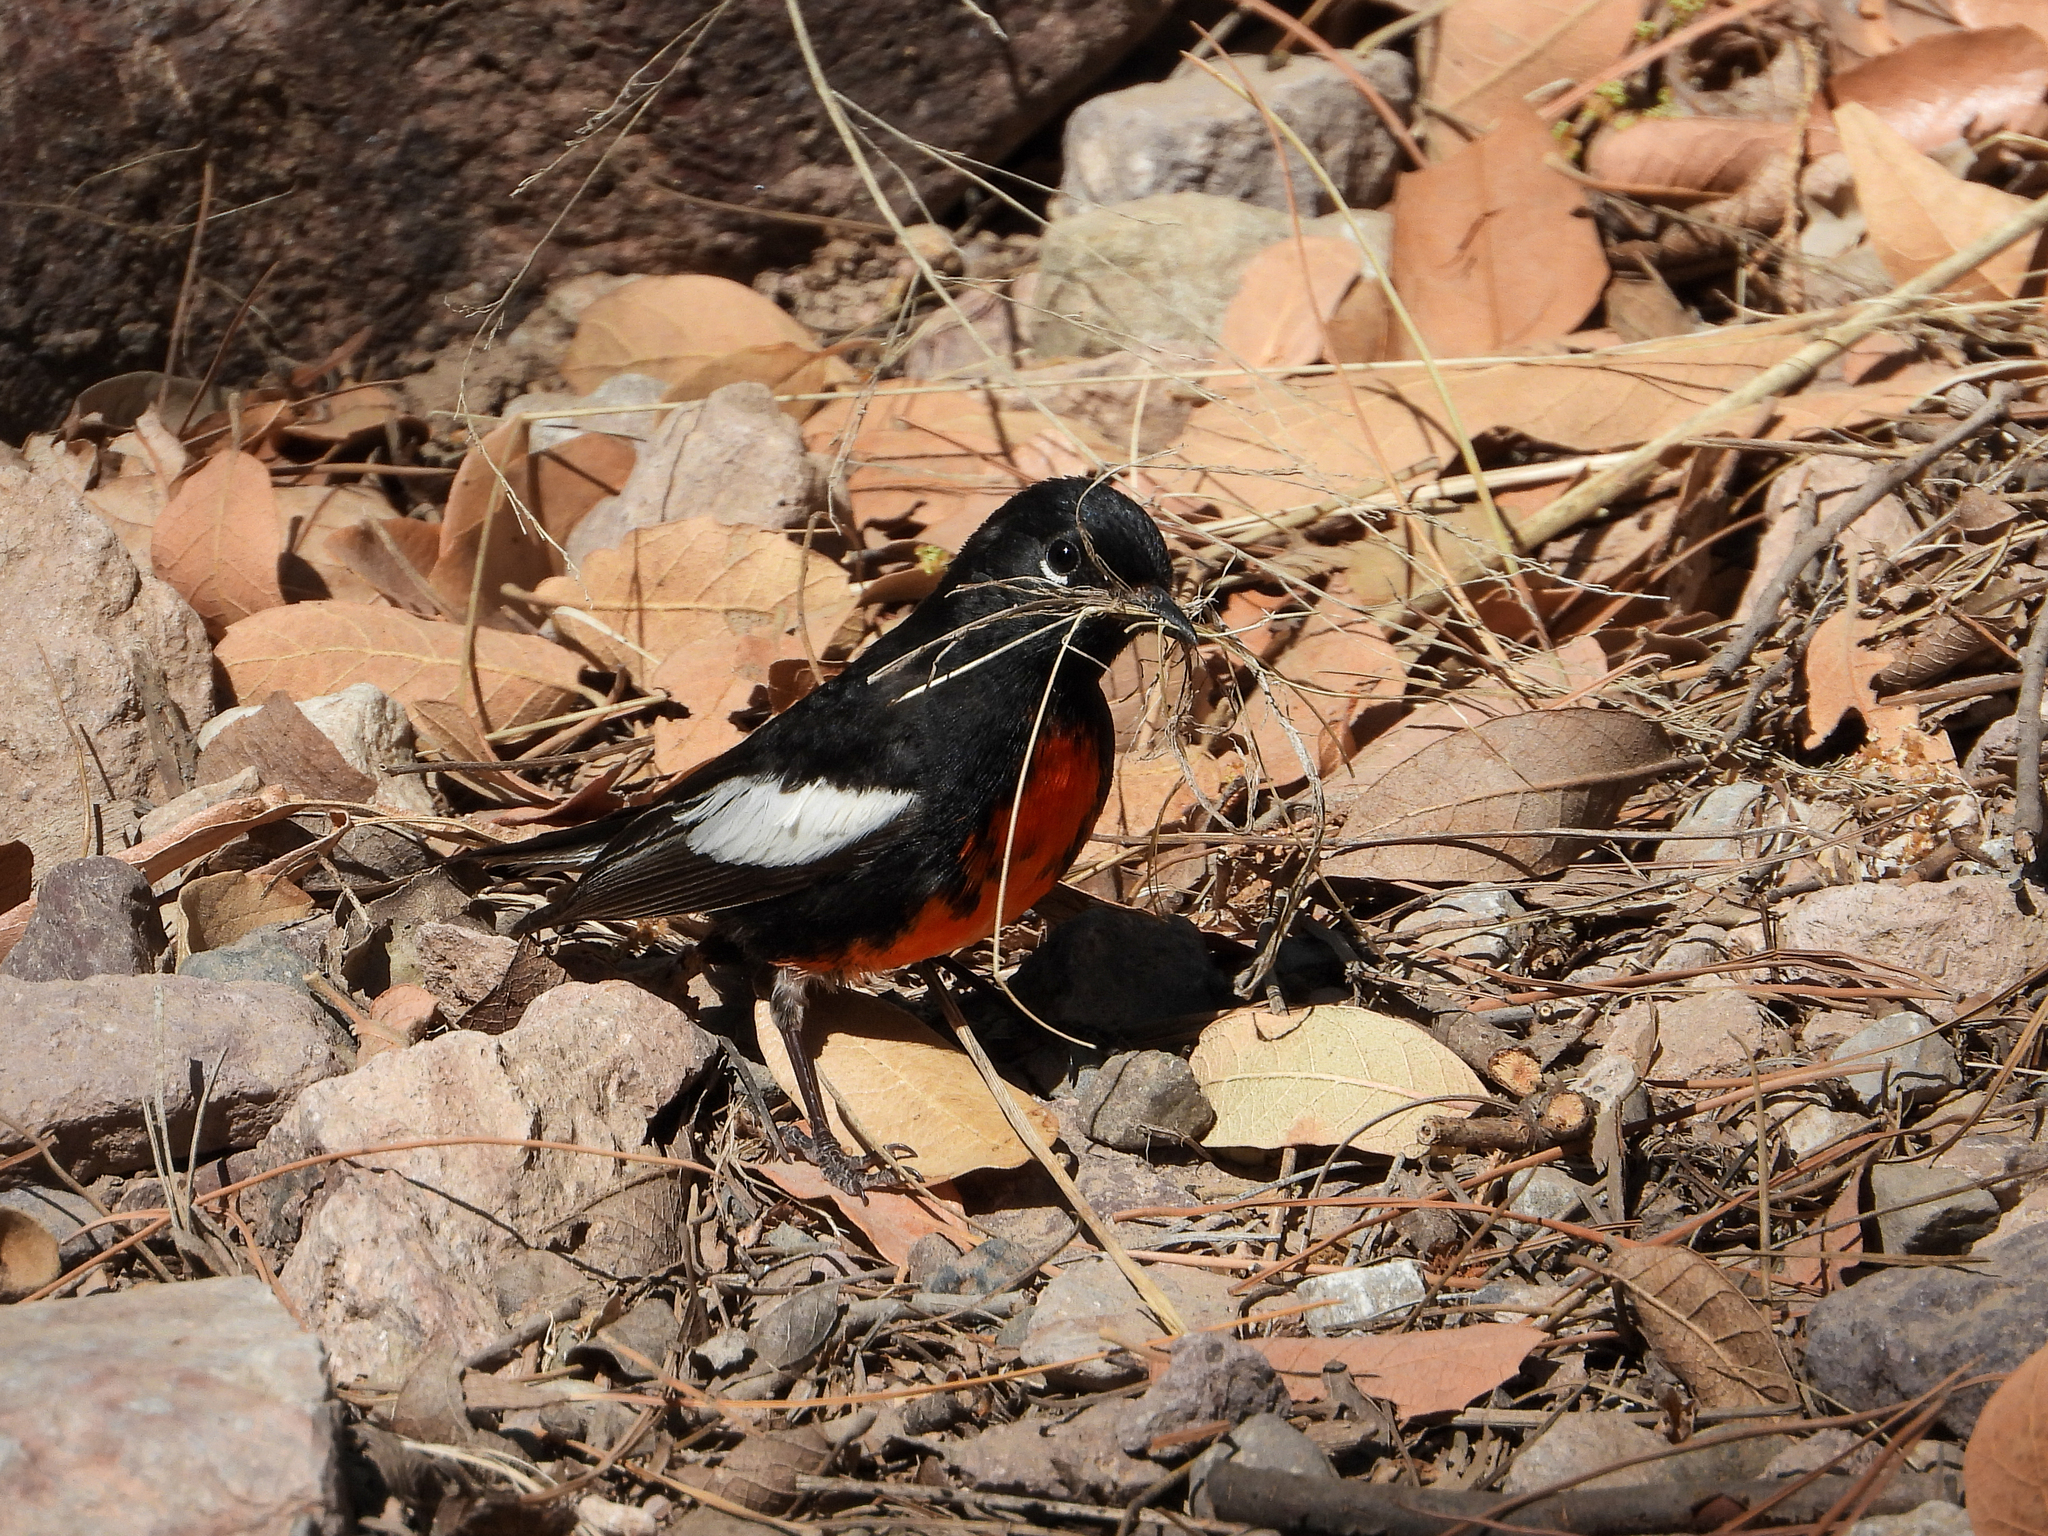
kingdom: Animalia
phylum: Chordata
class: Aves
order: Passeriformes
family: Parulidae
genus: Myioborus
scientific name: Myioborus pictus
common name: Painted whitestart
